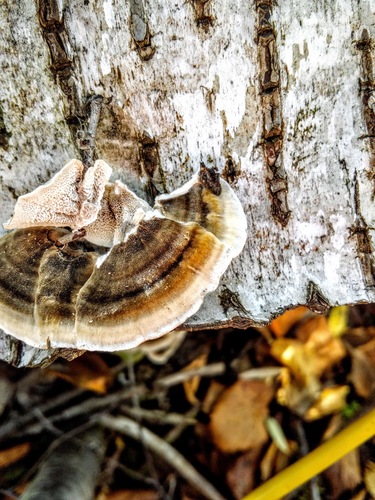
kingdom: Fungi
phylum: Basidiomycota
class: Agaricomycetes
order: Polyporales
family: Polyporaceae
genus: Trametes
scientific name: Trametes versicolor
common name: Turkeytail
